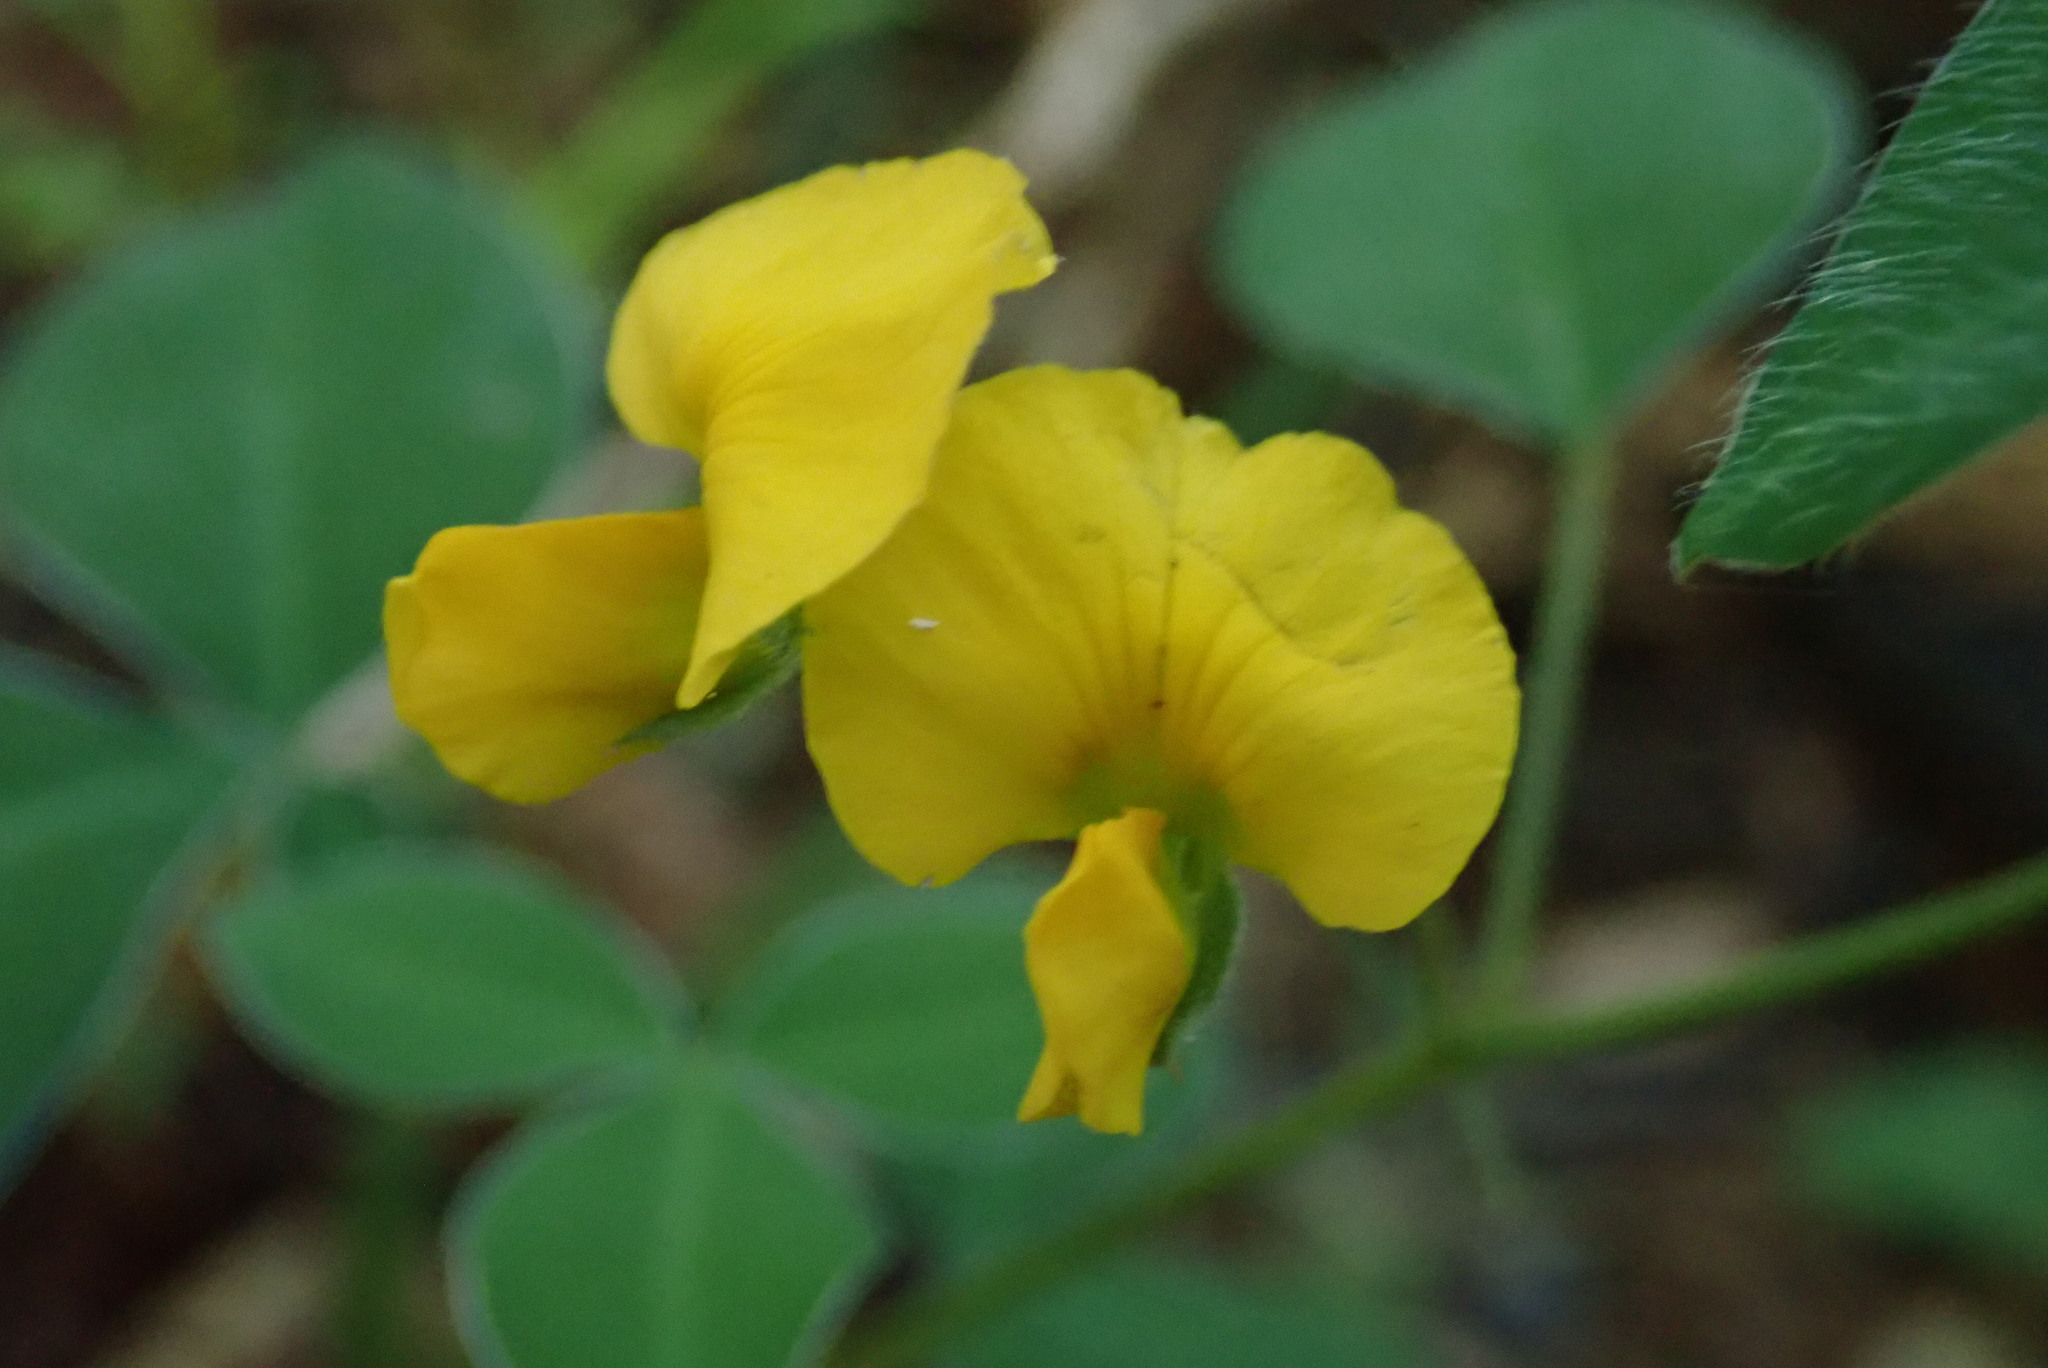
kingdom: Plantae
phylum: Tracheophyta
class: Magnoliopsida
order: Fabales
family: Fabaceae
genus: Argyrolobium
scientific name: Argyrolobium tomentosum
